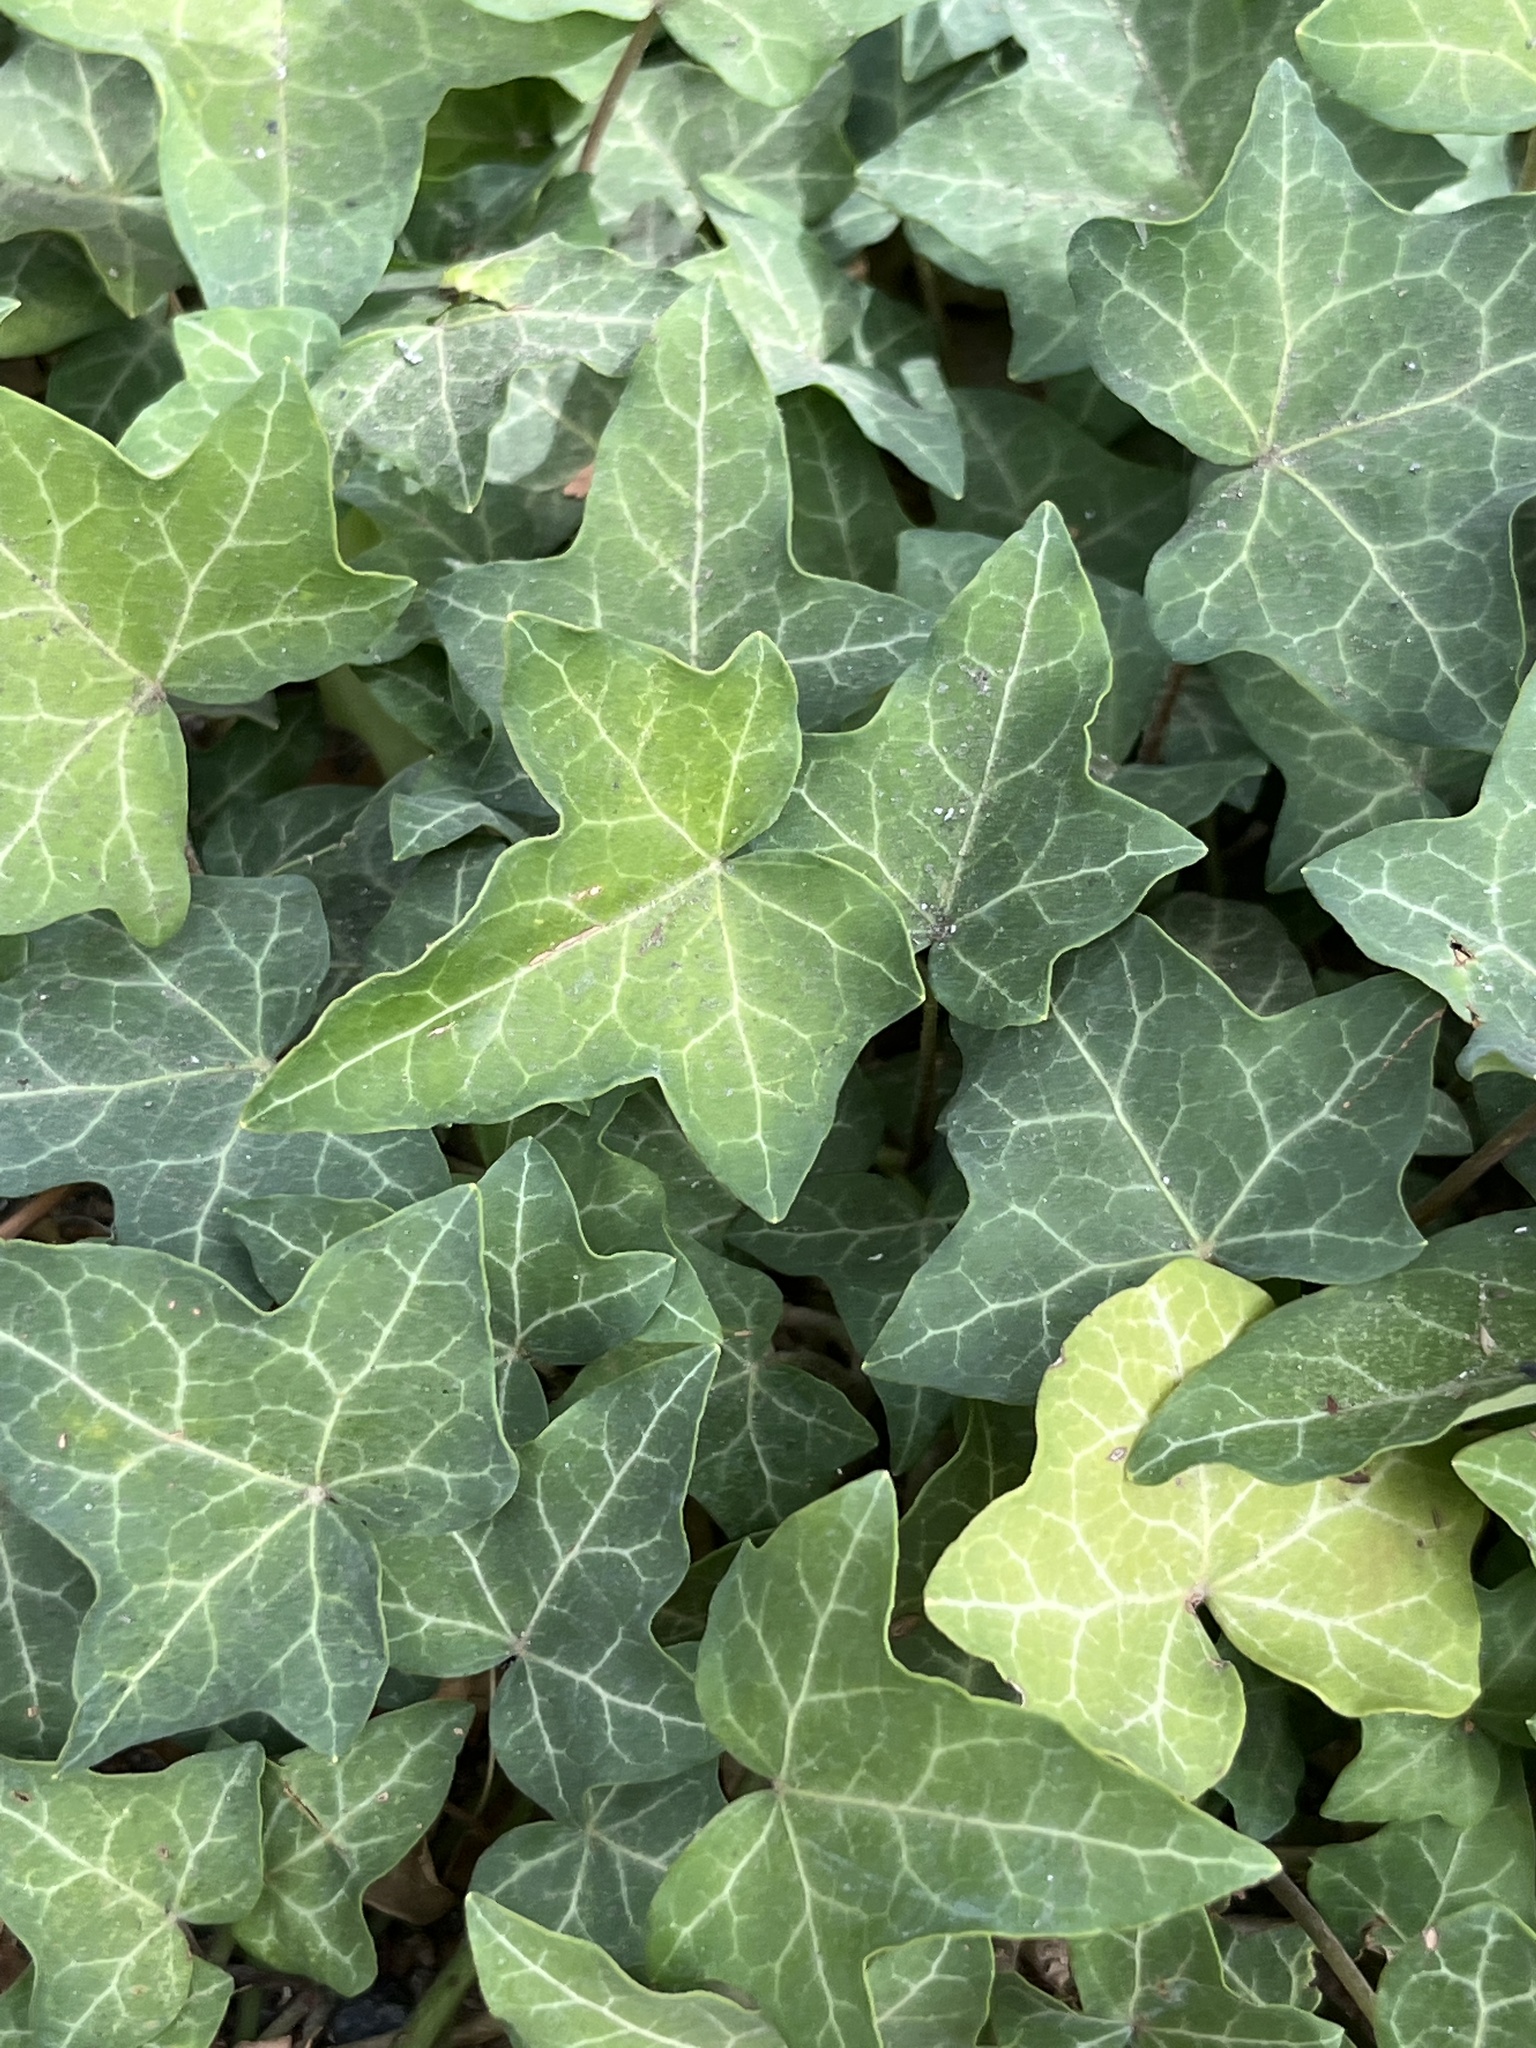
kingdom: Plantae
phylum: Tracheophyta
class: Magnoliopsida
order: Apiales
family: Araliaceae
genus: Hedera
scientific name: Hedera helix
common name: Ivy
